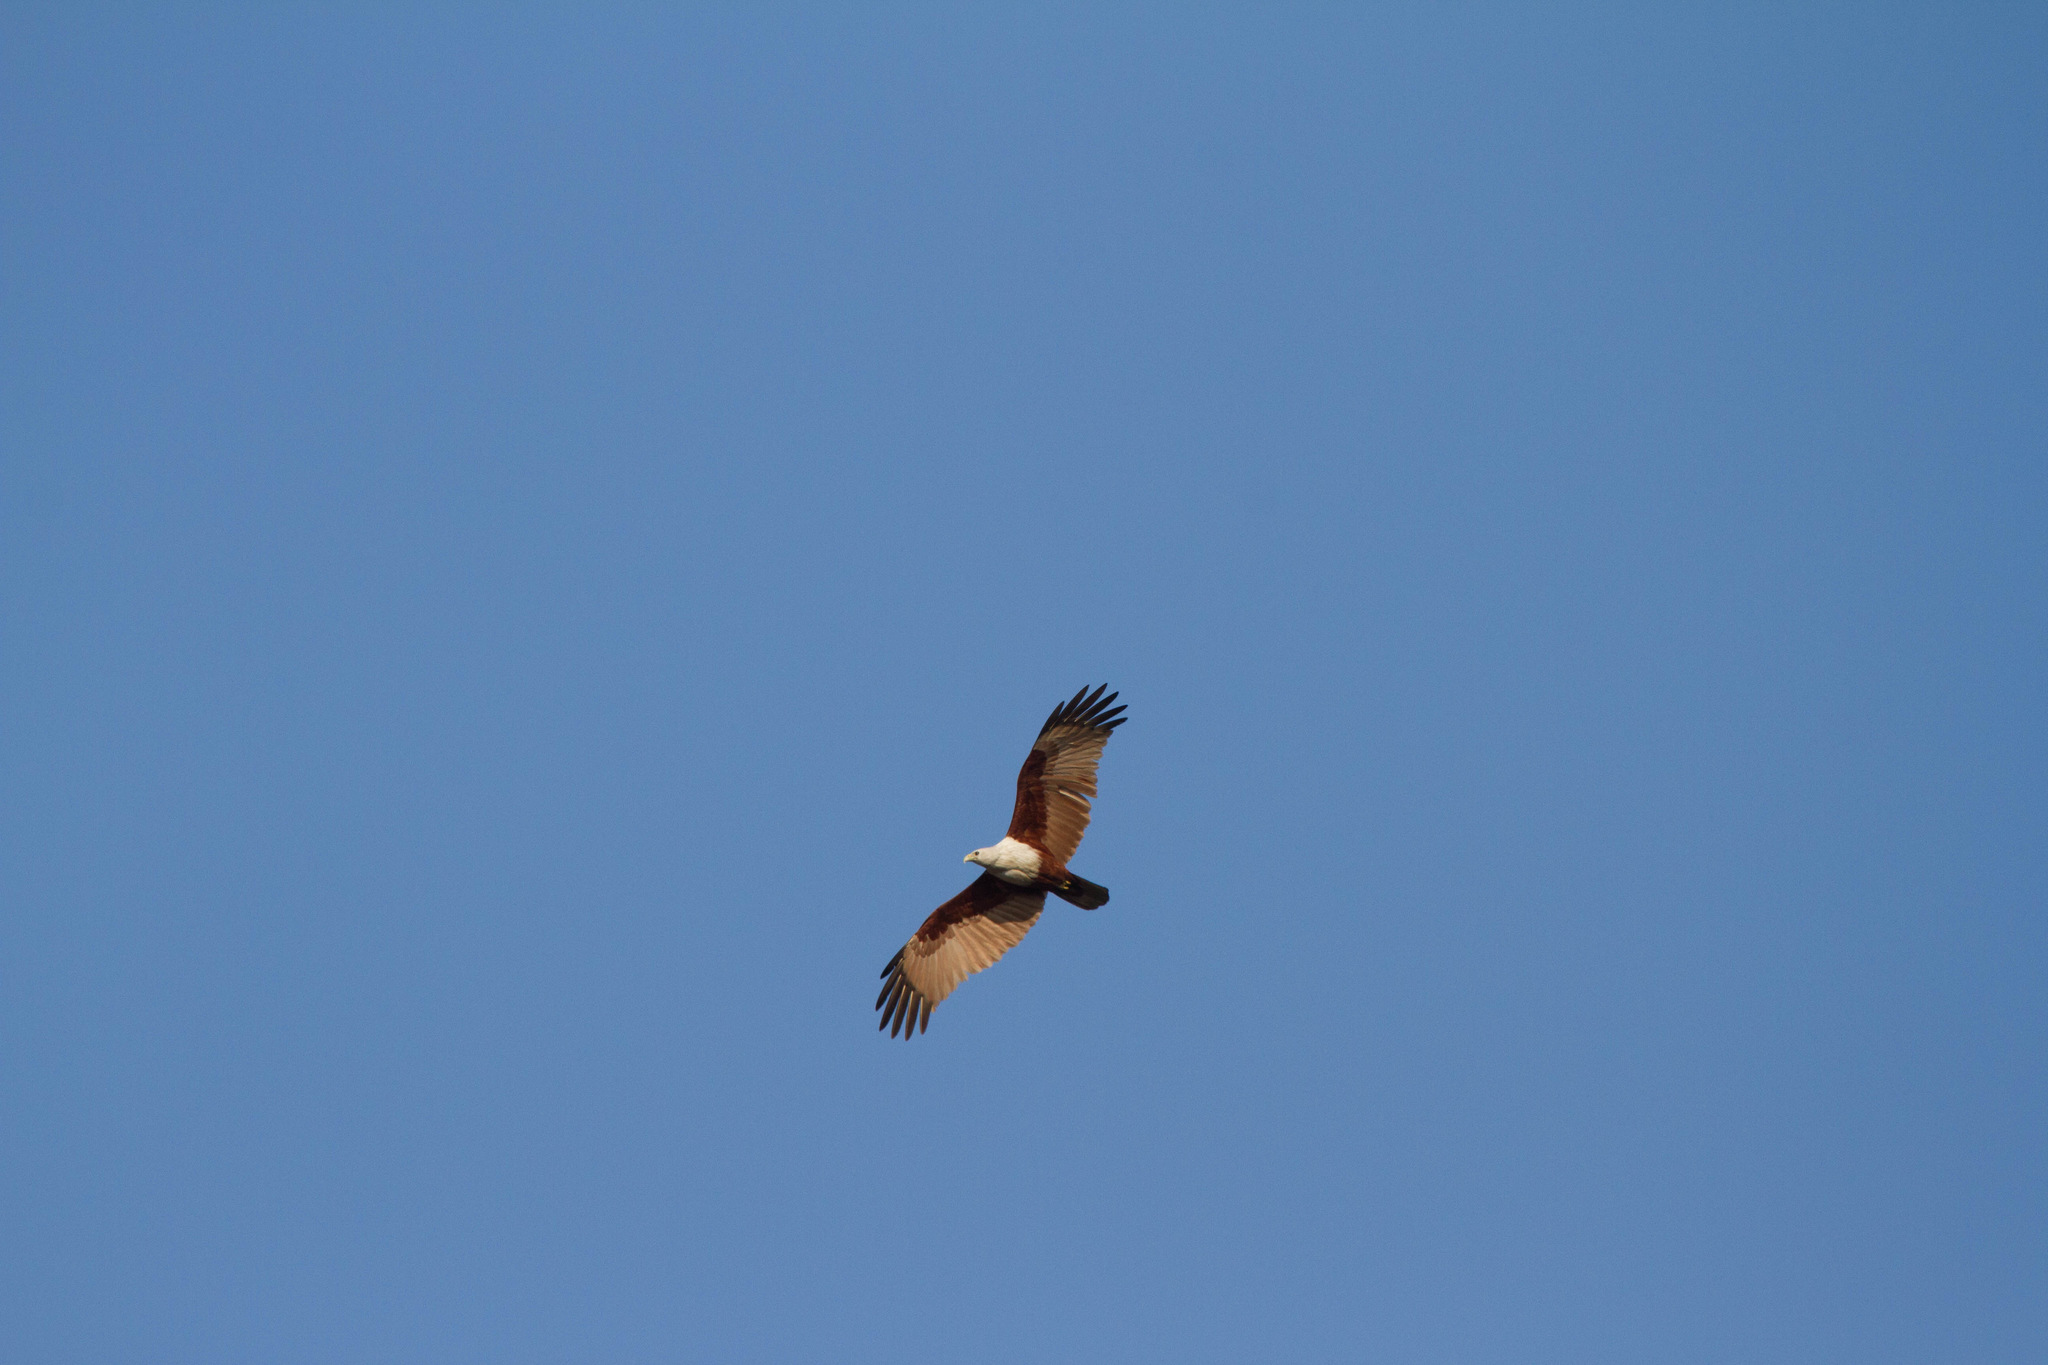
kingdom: Animalia
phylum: Chordata
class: Aves
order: Accipitriformes
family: Accipitridae
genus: Haliastur
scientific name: Haliastur indus
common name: Brahminy kite
